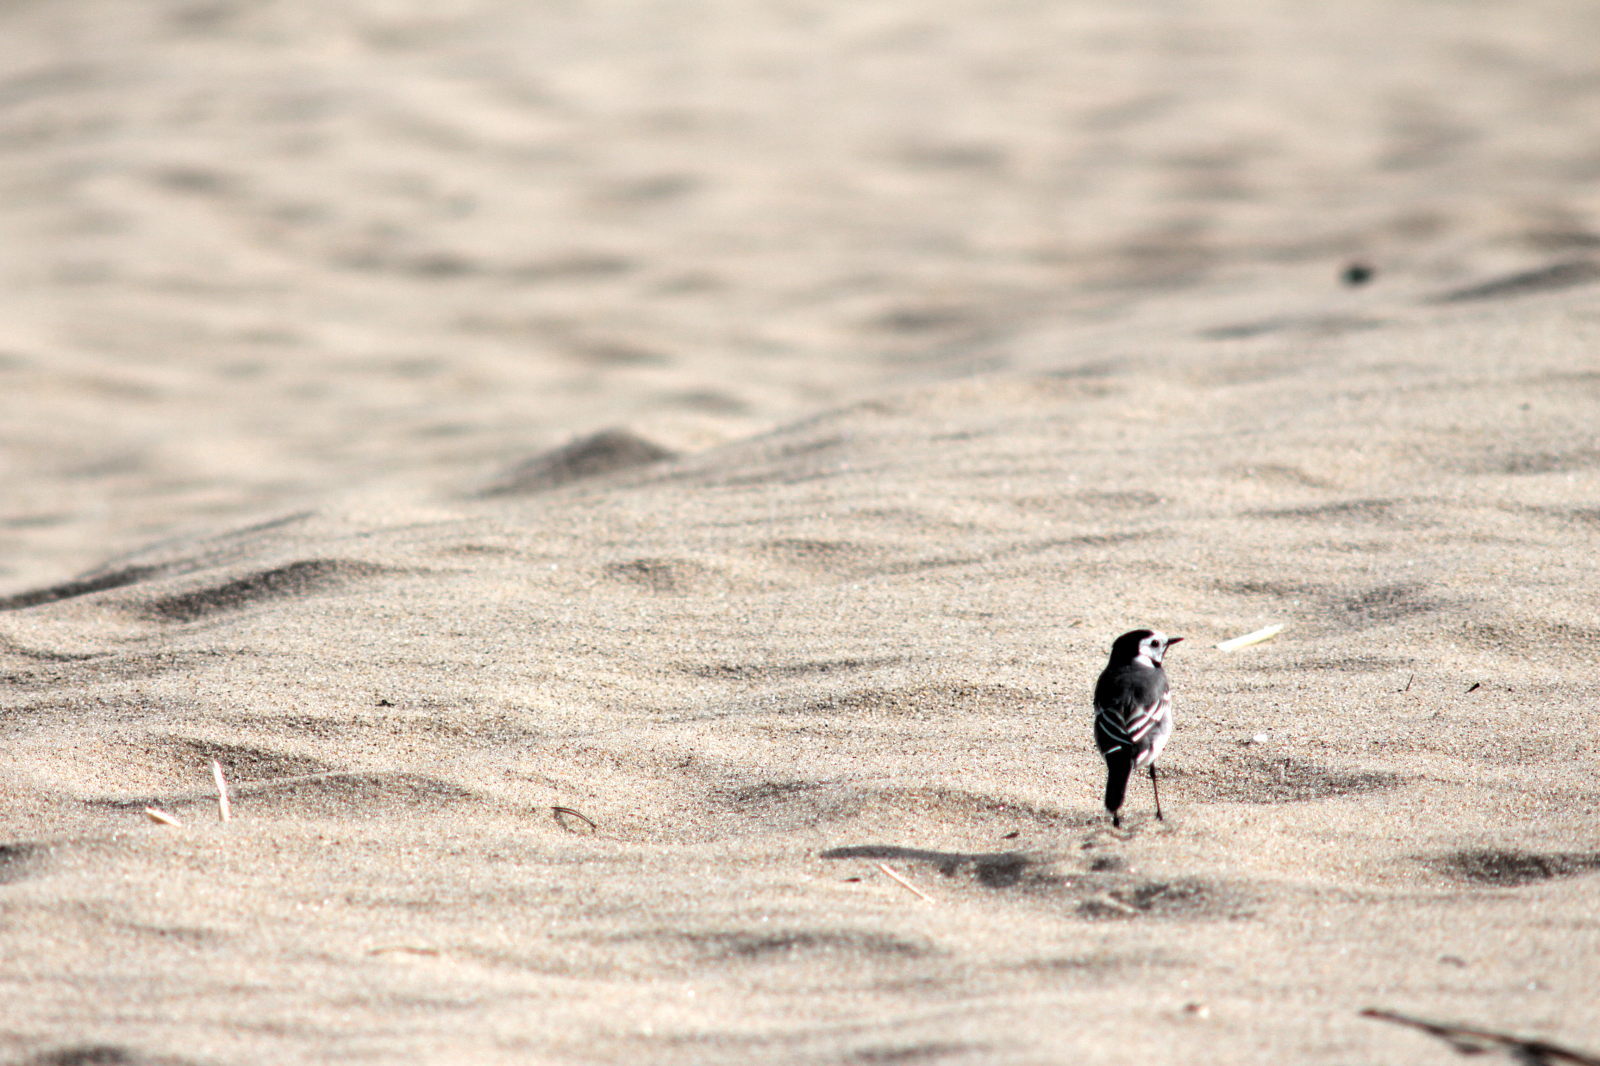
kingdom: Animalia
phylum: Chordata
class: Aves
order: Passeriformes
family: Motacillidae
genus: Motacilla
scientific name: Motacilla alba
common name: White wagtail
